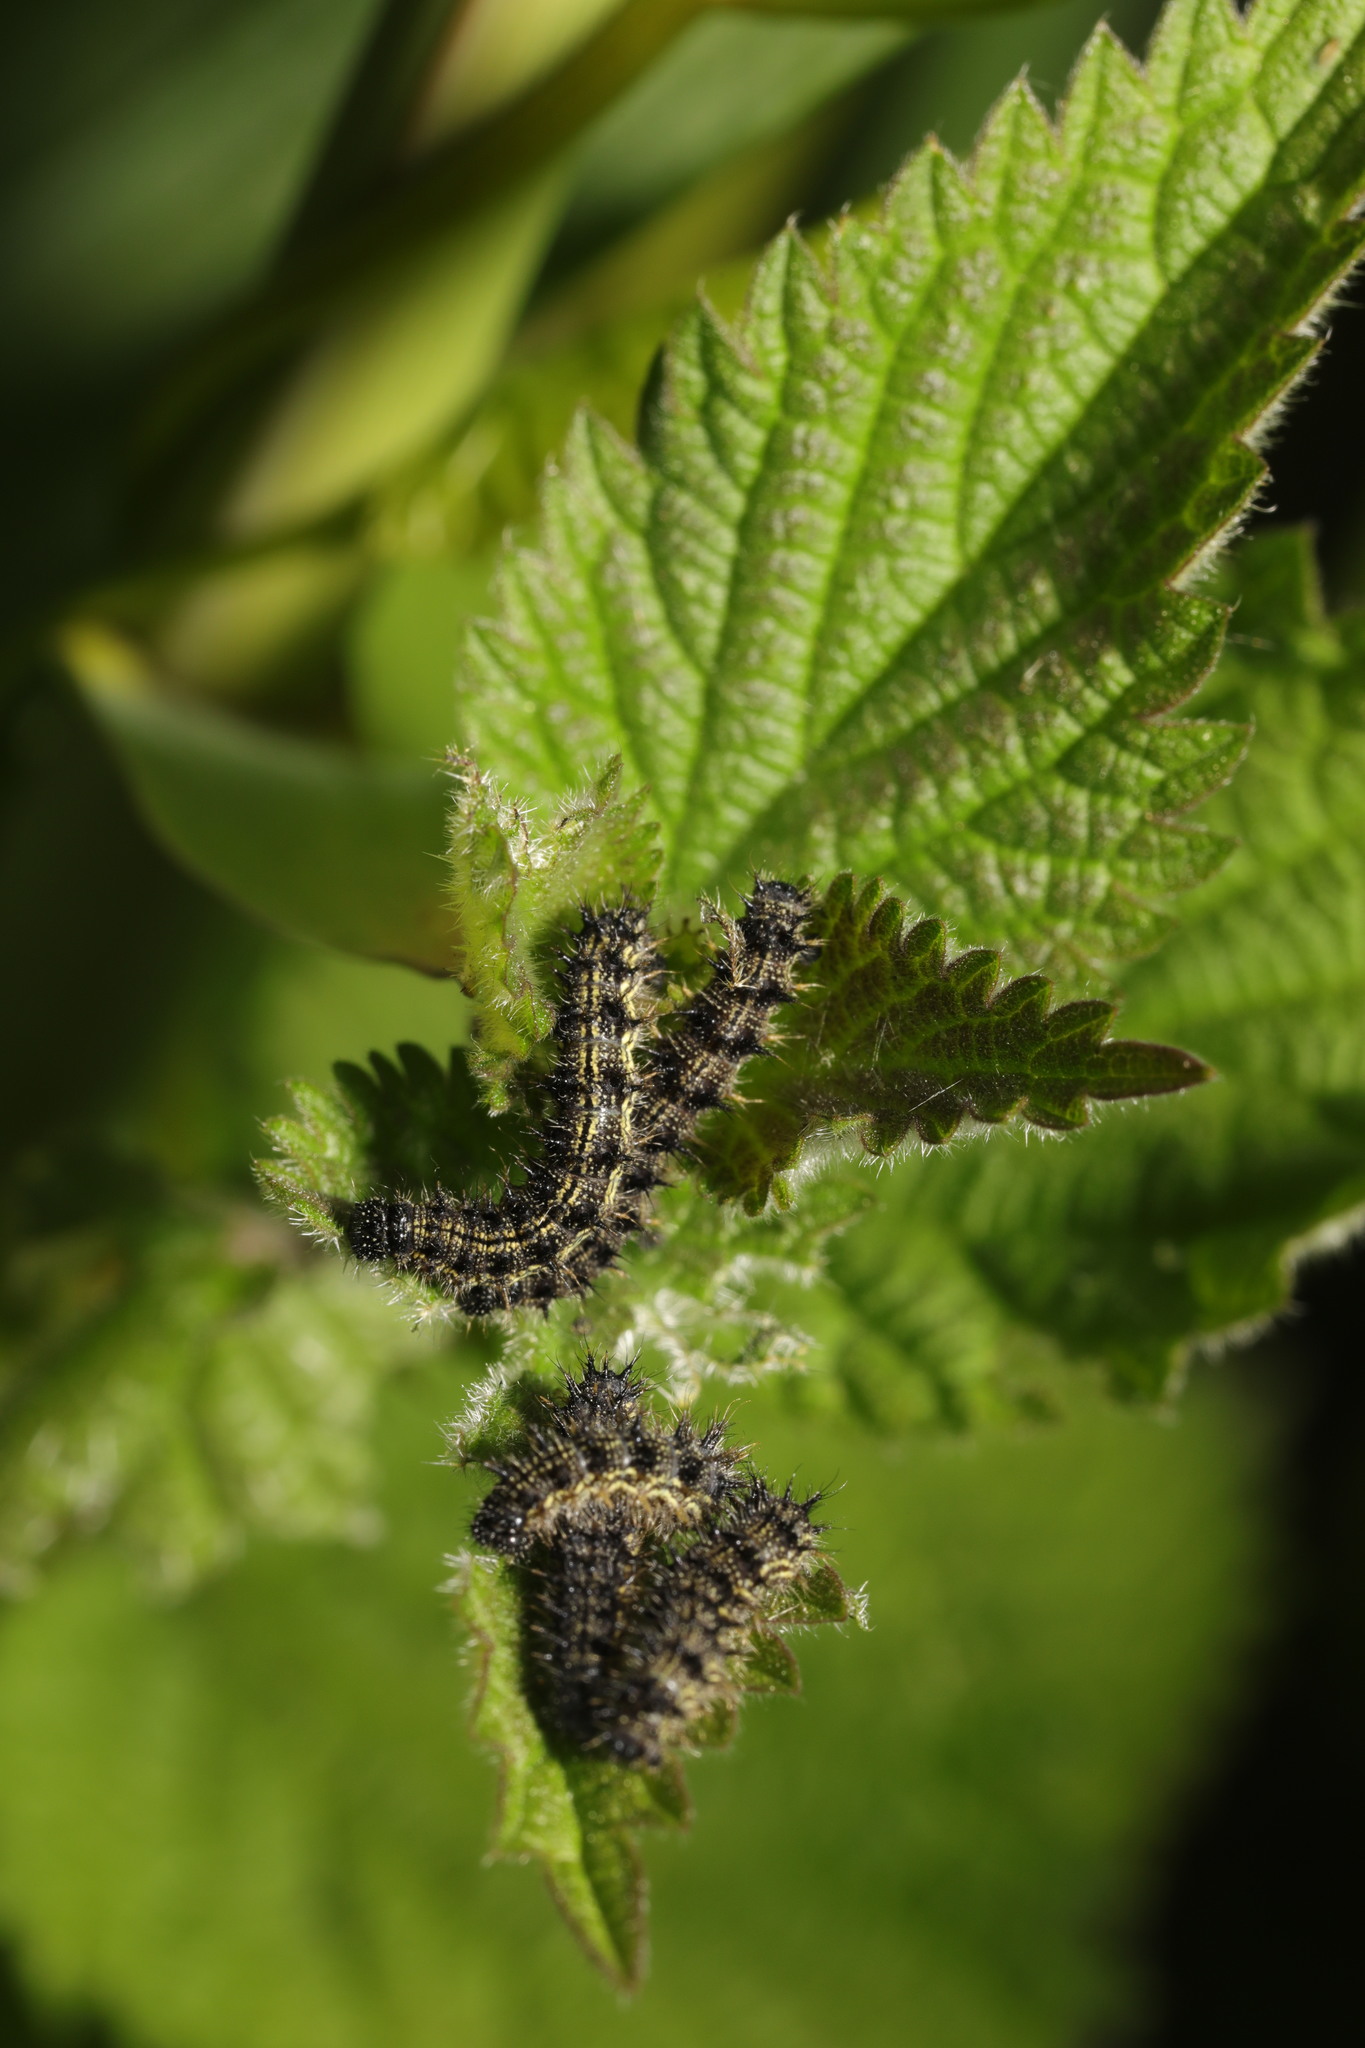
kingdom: Animalia
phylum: Arthropoda
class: Insecta
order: Lepidoptera
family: Nymphalidae
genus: Aglais
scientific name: Aglais urticae
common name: Small tortoiseshell
